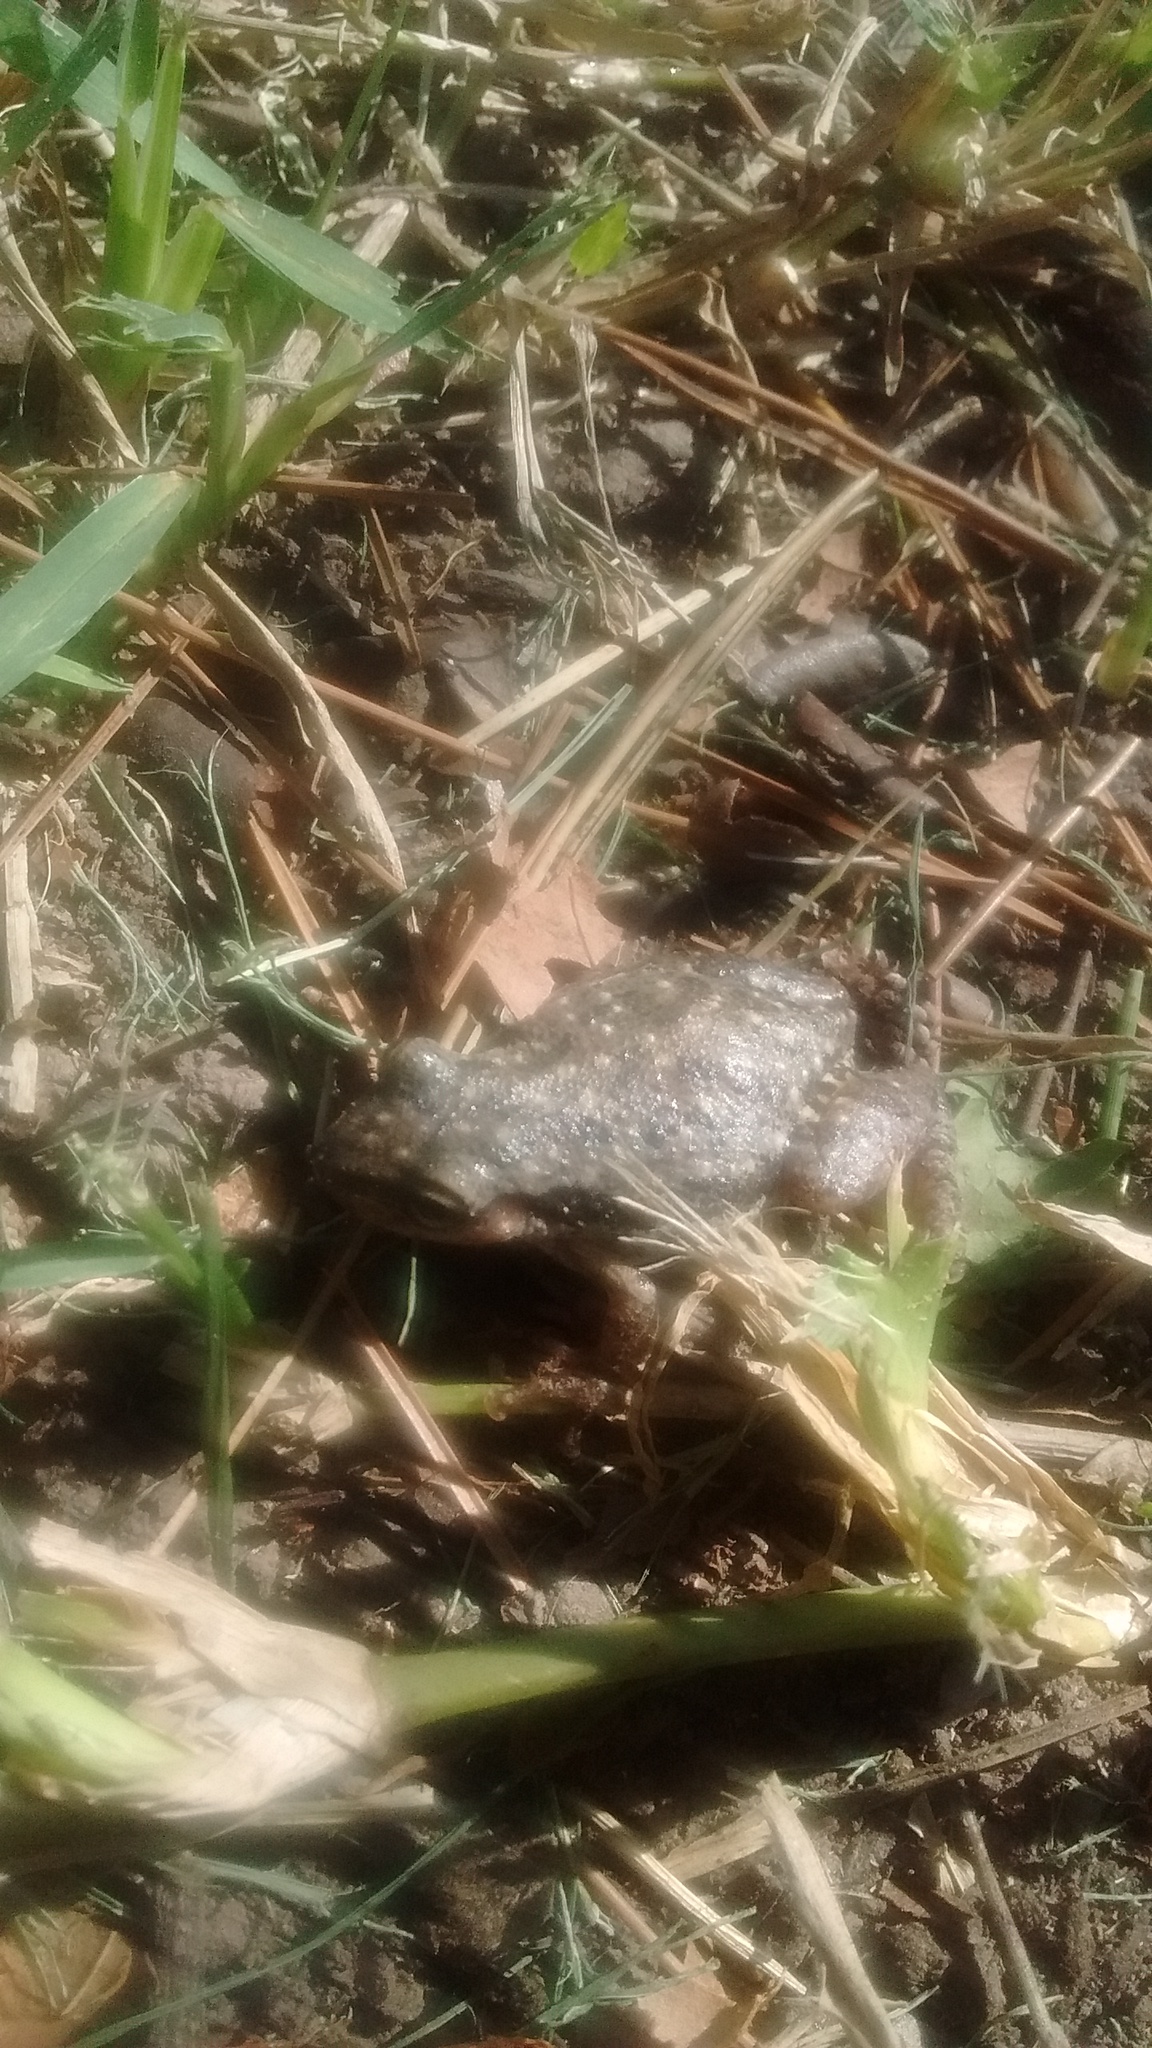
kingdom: Animalia
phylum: Chordata
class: Amphibia
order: Anura
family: Hylidae
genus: Scinax
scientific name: Scinax nasicus
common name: Lesser snouted treefrog
